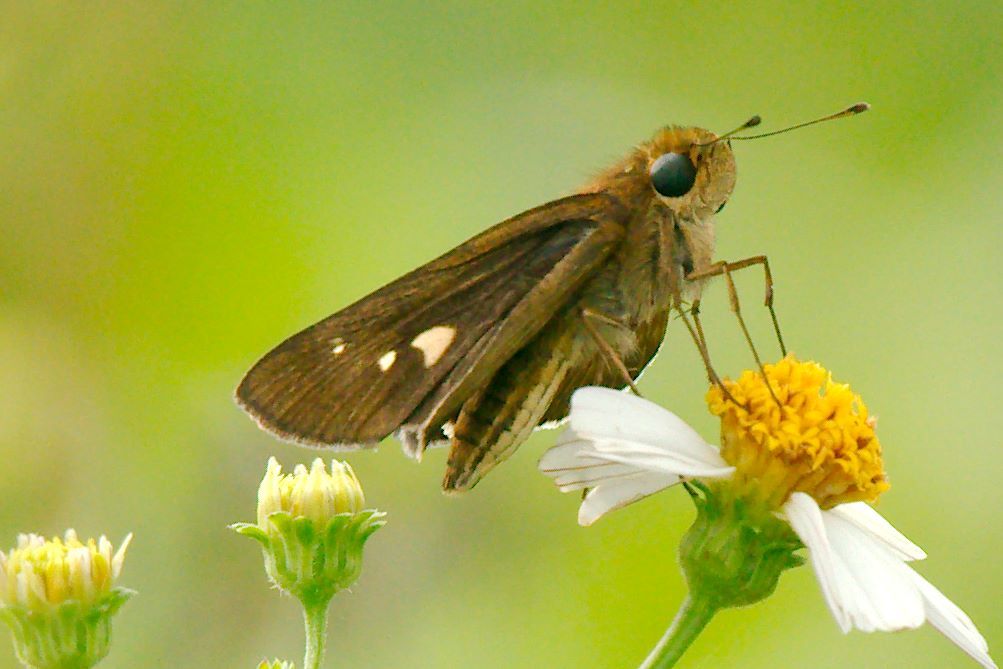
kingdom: Animalia
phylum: Arthropoda
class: Insecta
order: Lepidoptera
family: Hesperiidae
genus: Panoquina
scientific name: Panoquina ocola
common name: Ocola skipper
